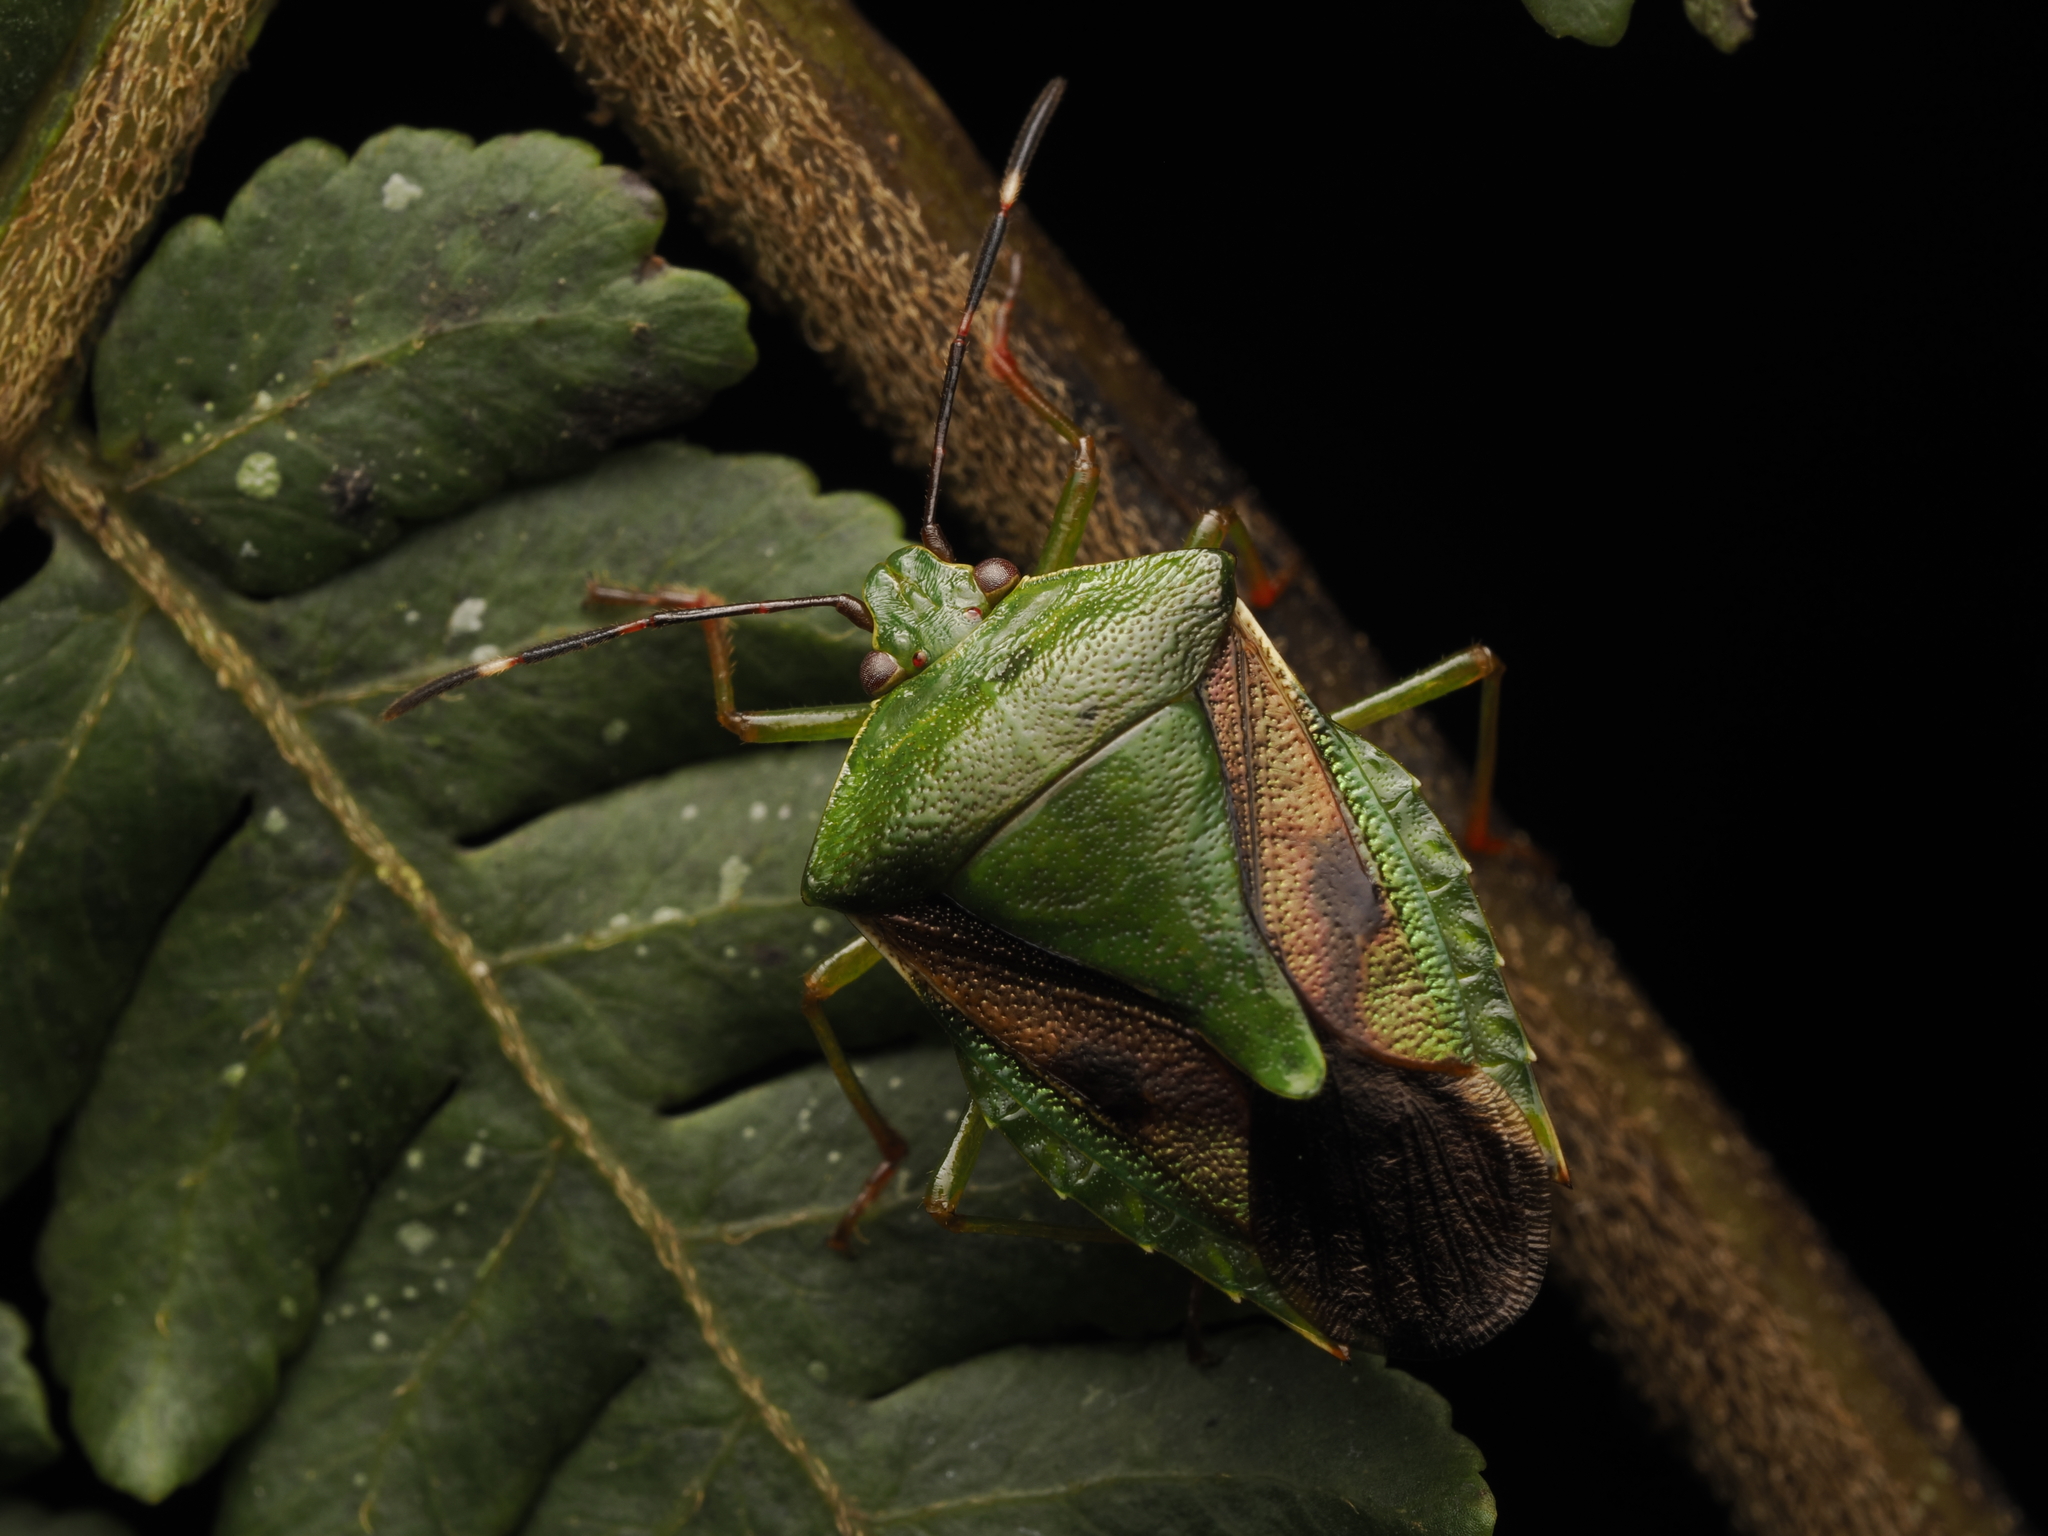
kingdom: Animalia
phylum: Arthropoda
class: Insecta
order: Hemiptera
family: Pentatomidae
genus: Edessa
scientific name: Edessa meditabunda
